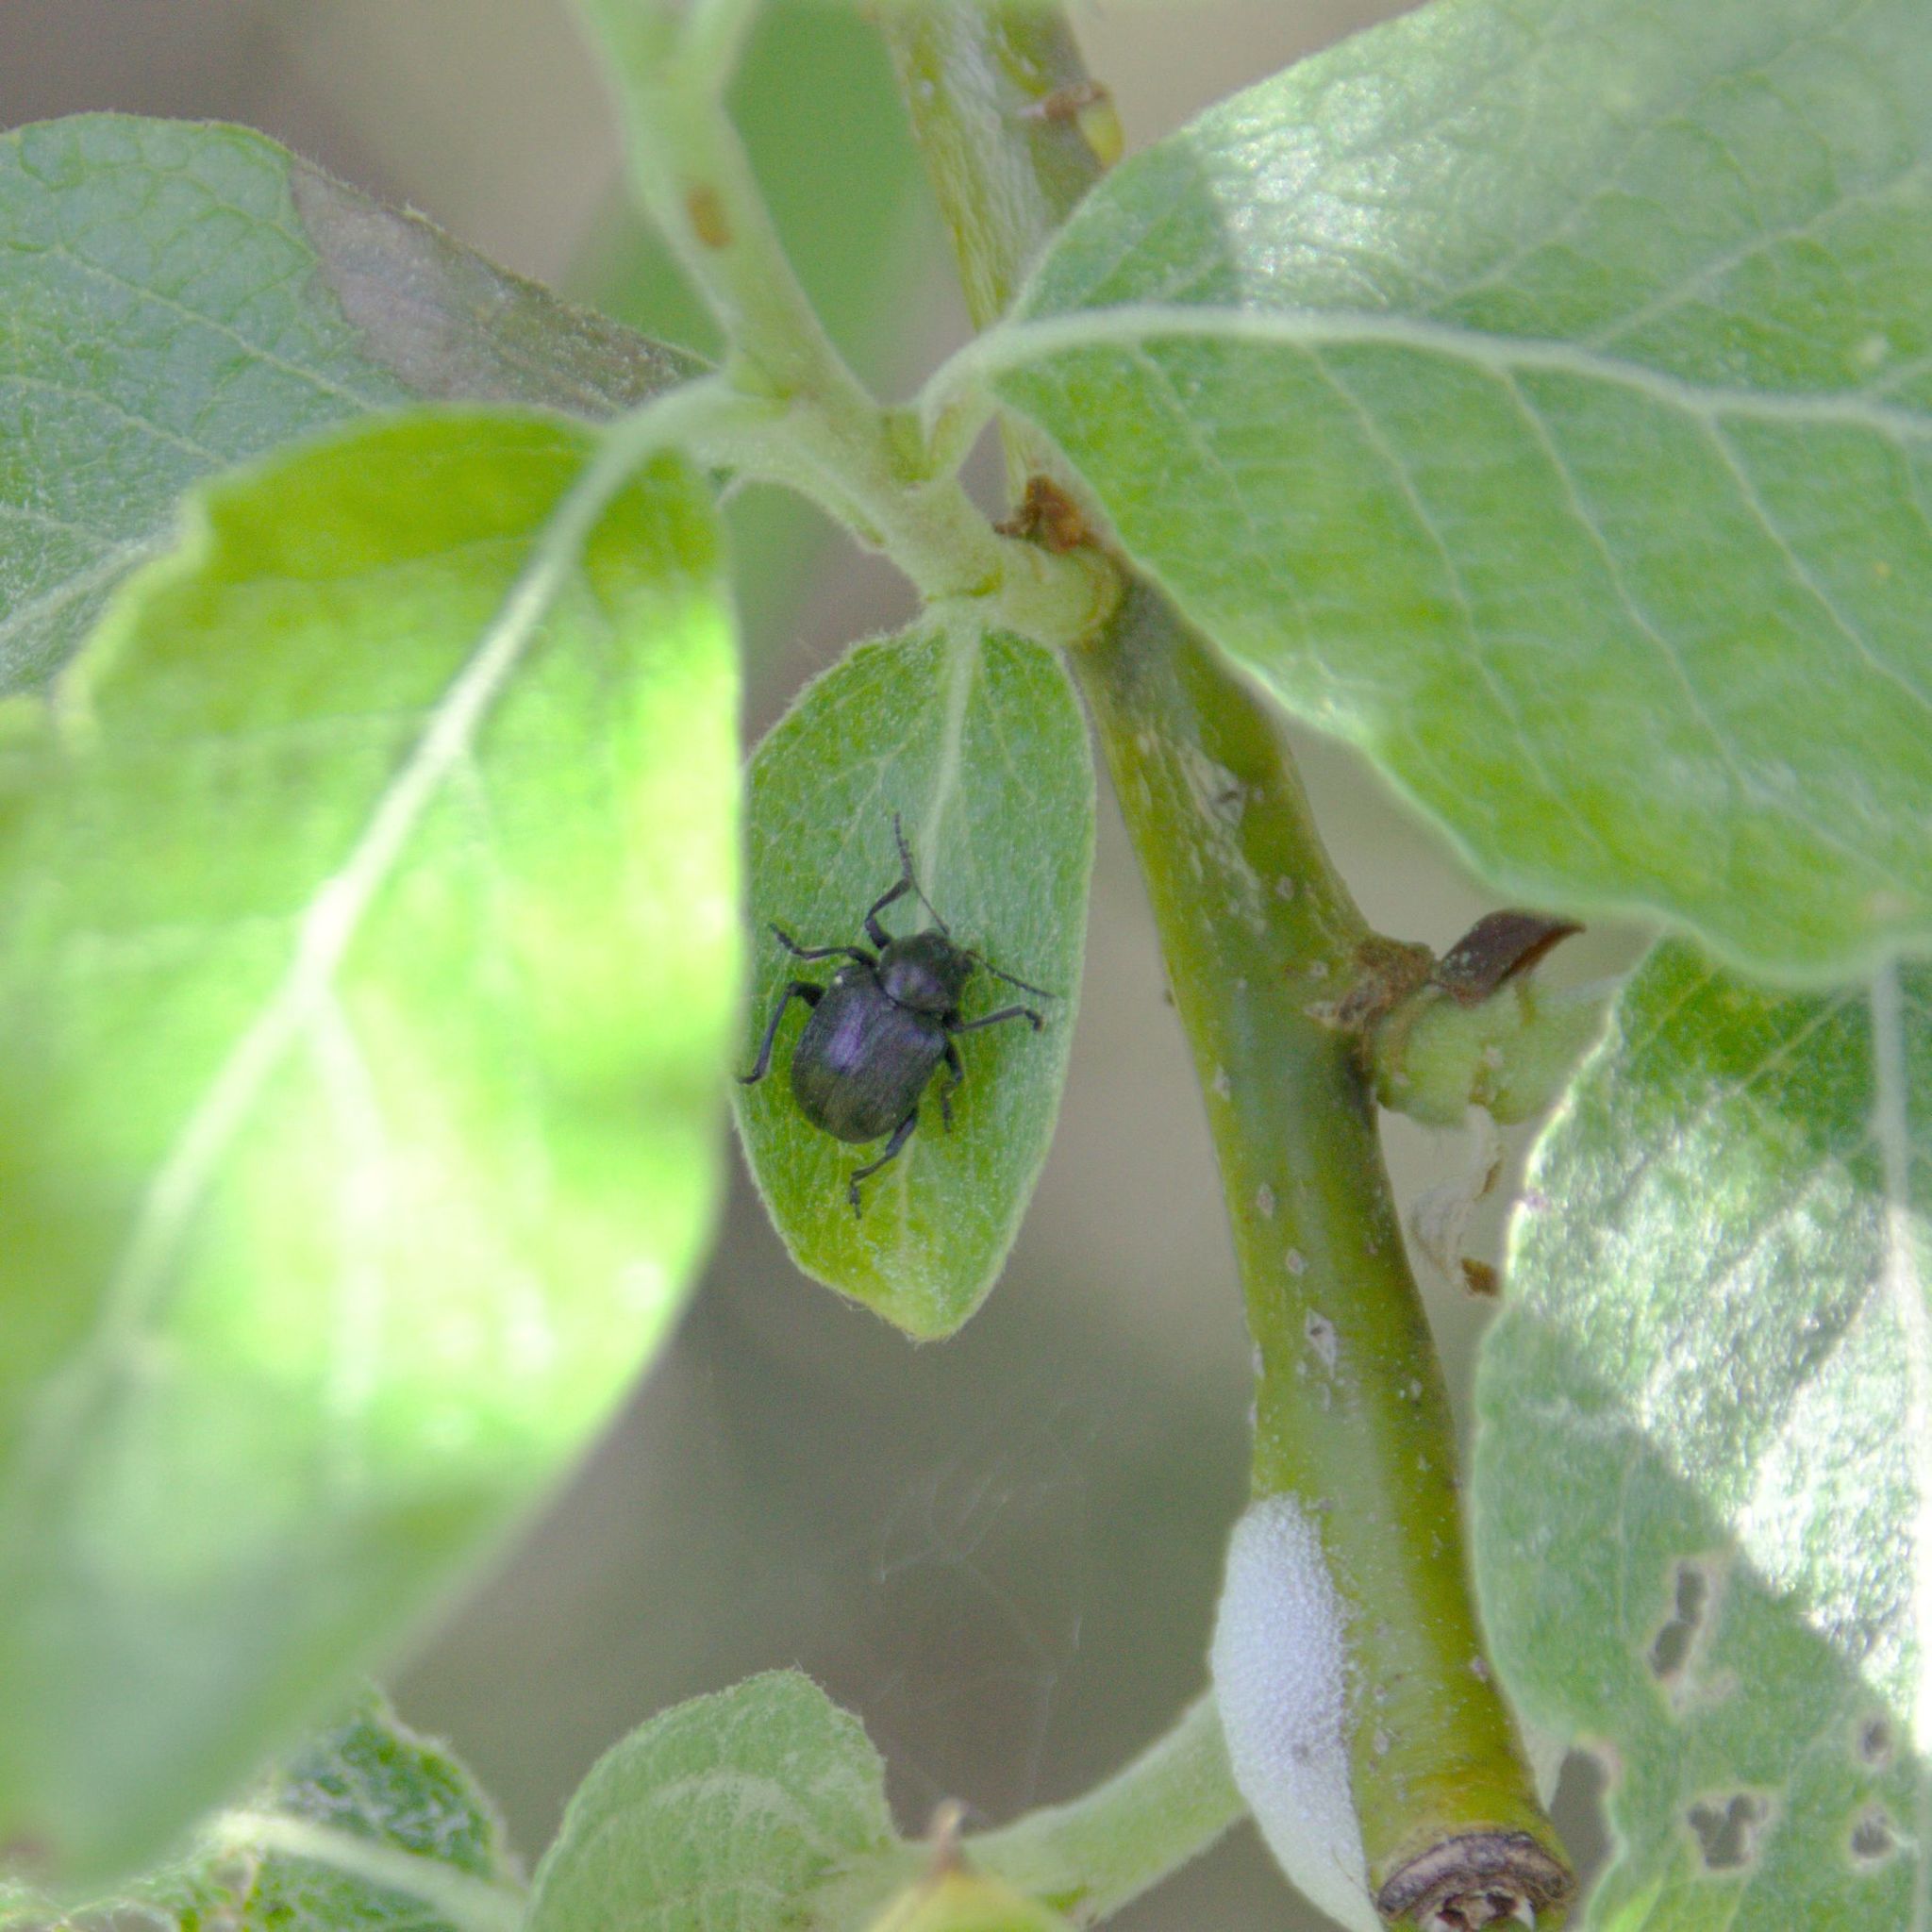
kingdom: Animalia
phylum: Arthropoda
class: Insecta
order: Coleoptera
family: Chrysomelidae
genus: Bromius
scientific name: Bromius obscurus
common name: Western grape rootworm
